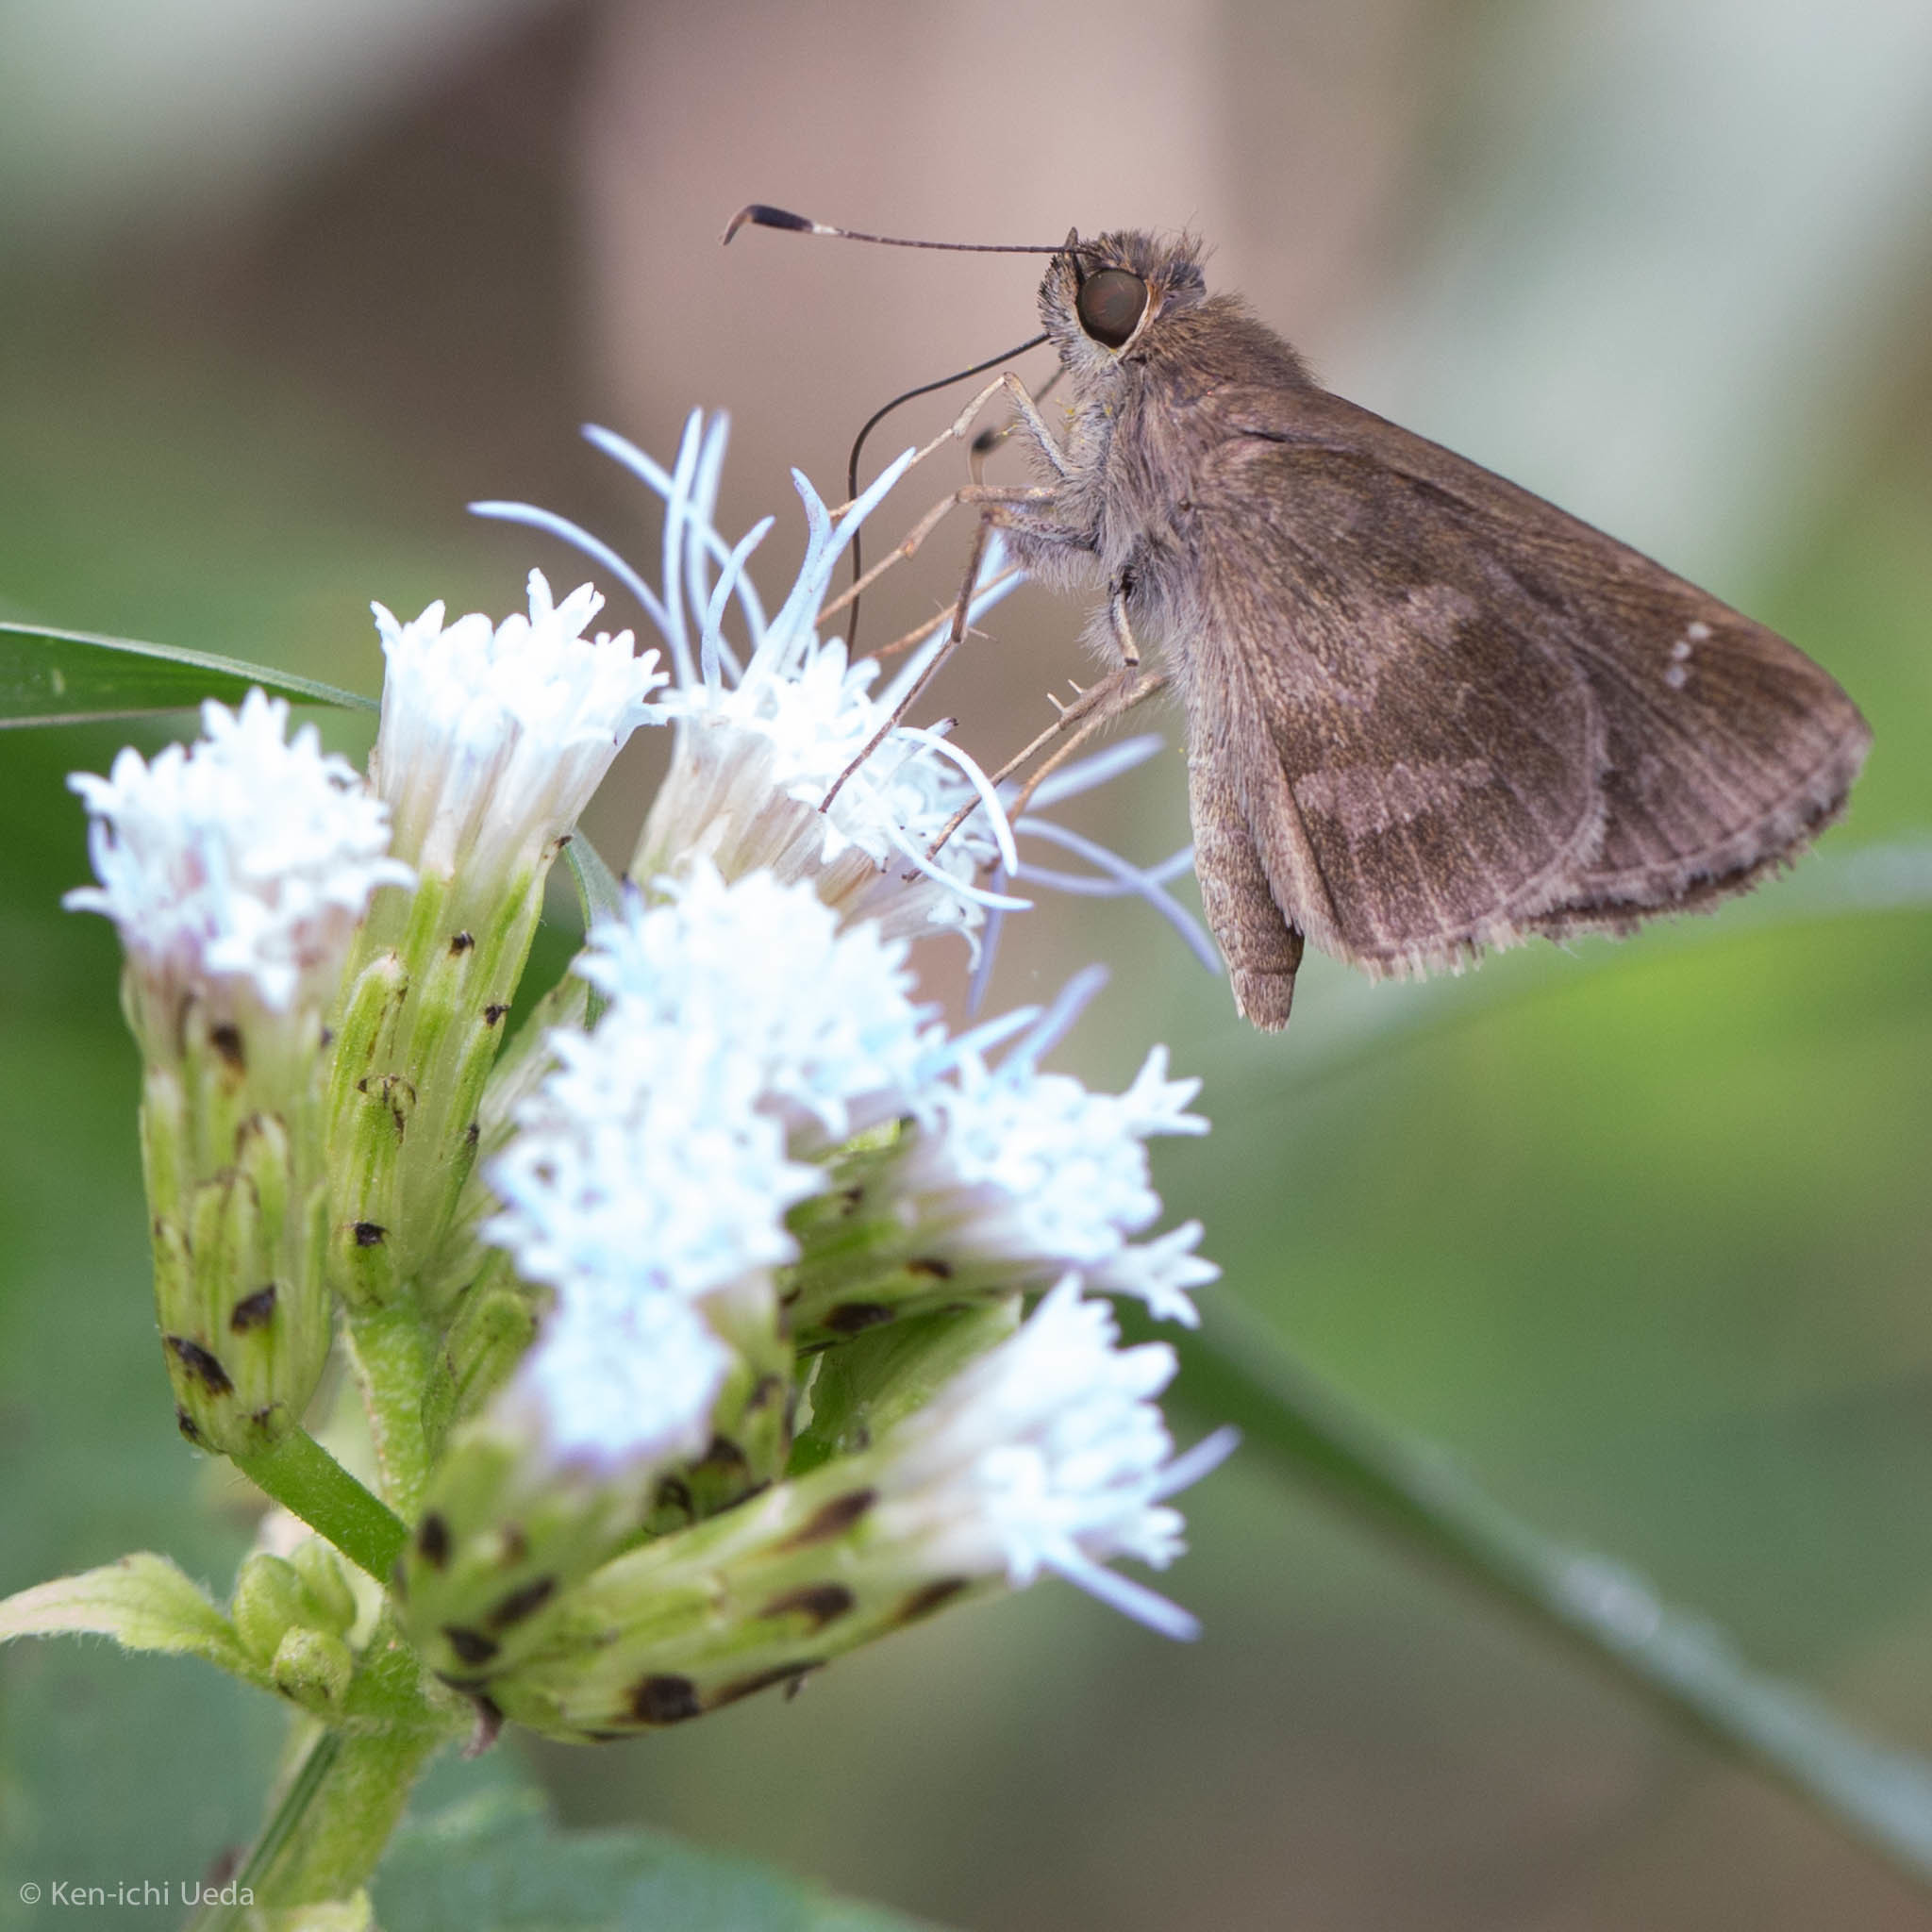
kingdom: Animalia
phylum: Arthropoda
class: Insecta
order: Lepidoptera
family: Hesperiidae
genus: Cymaenes
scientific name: Cymaenes
